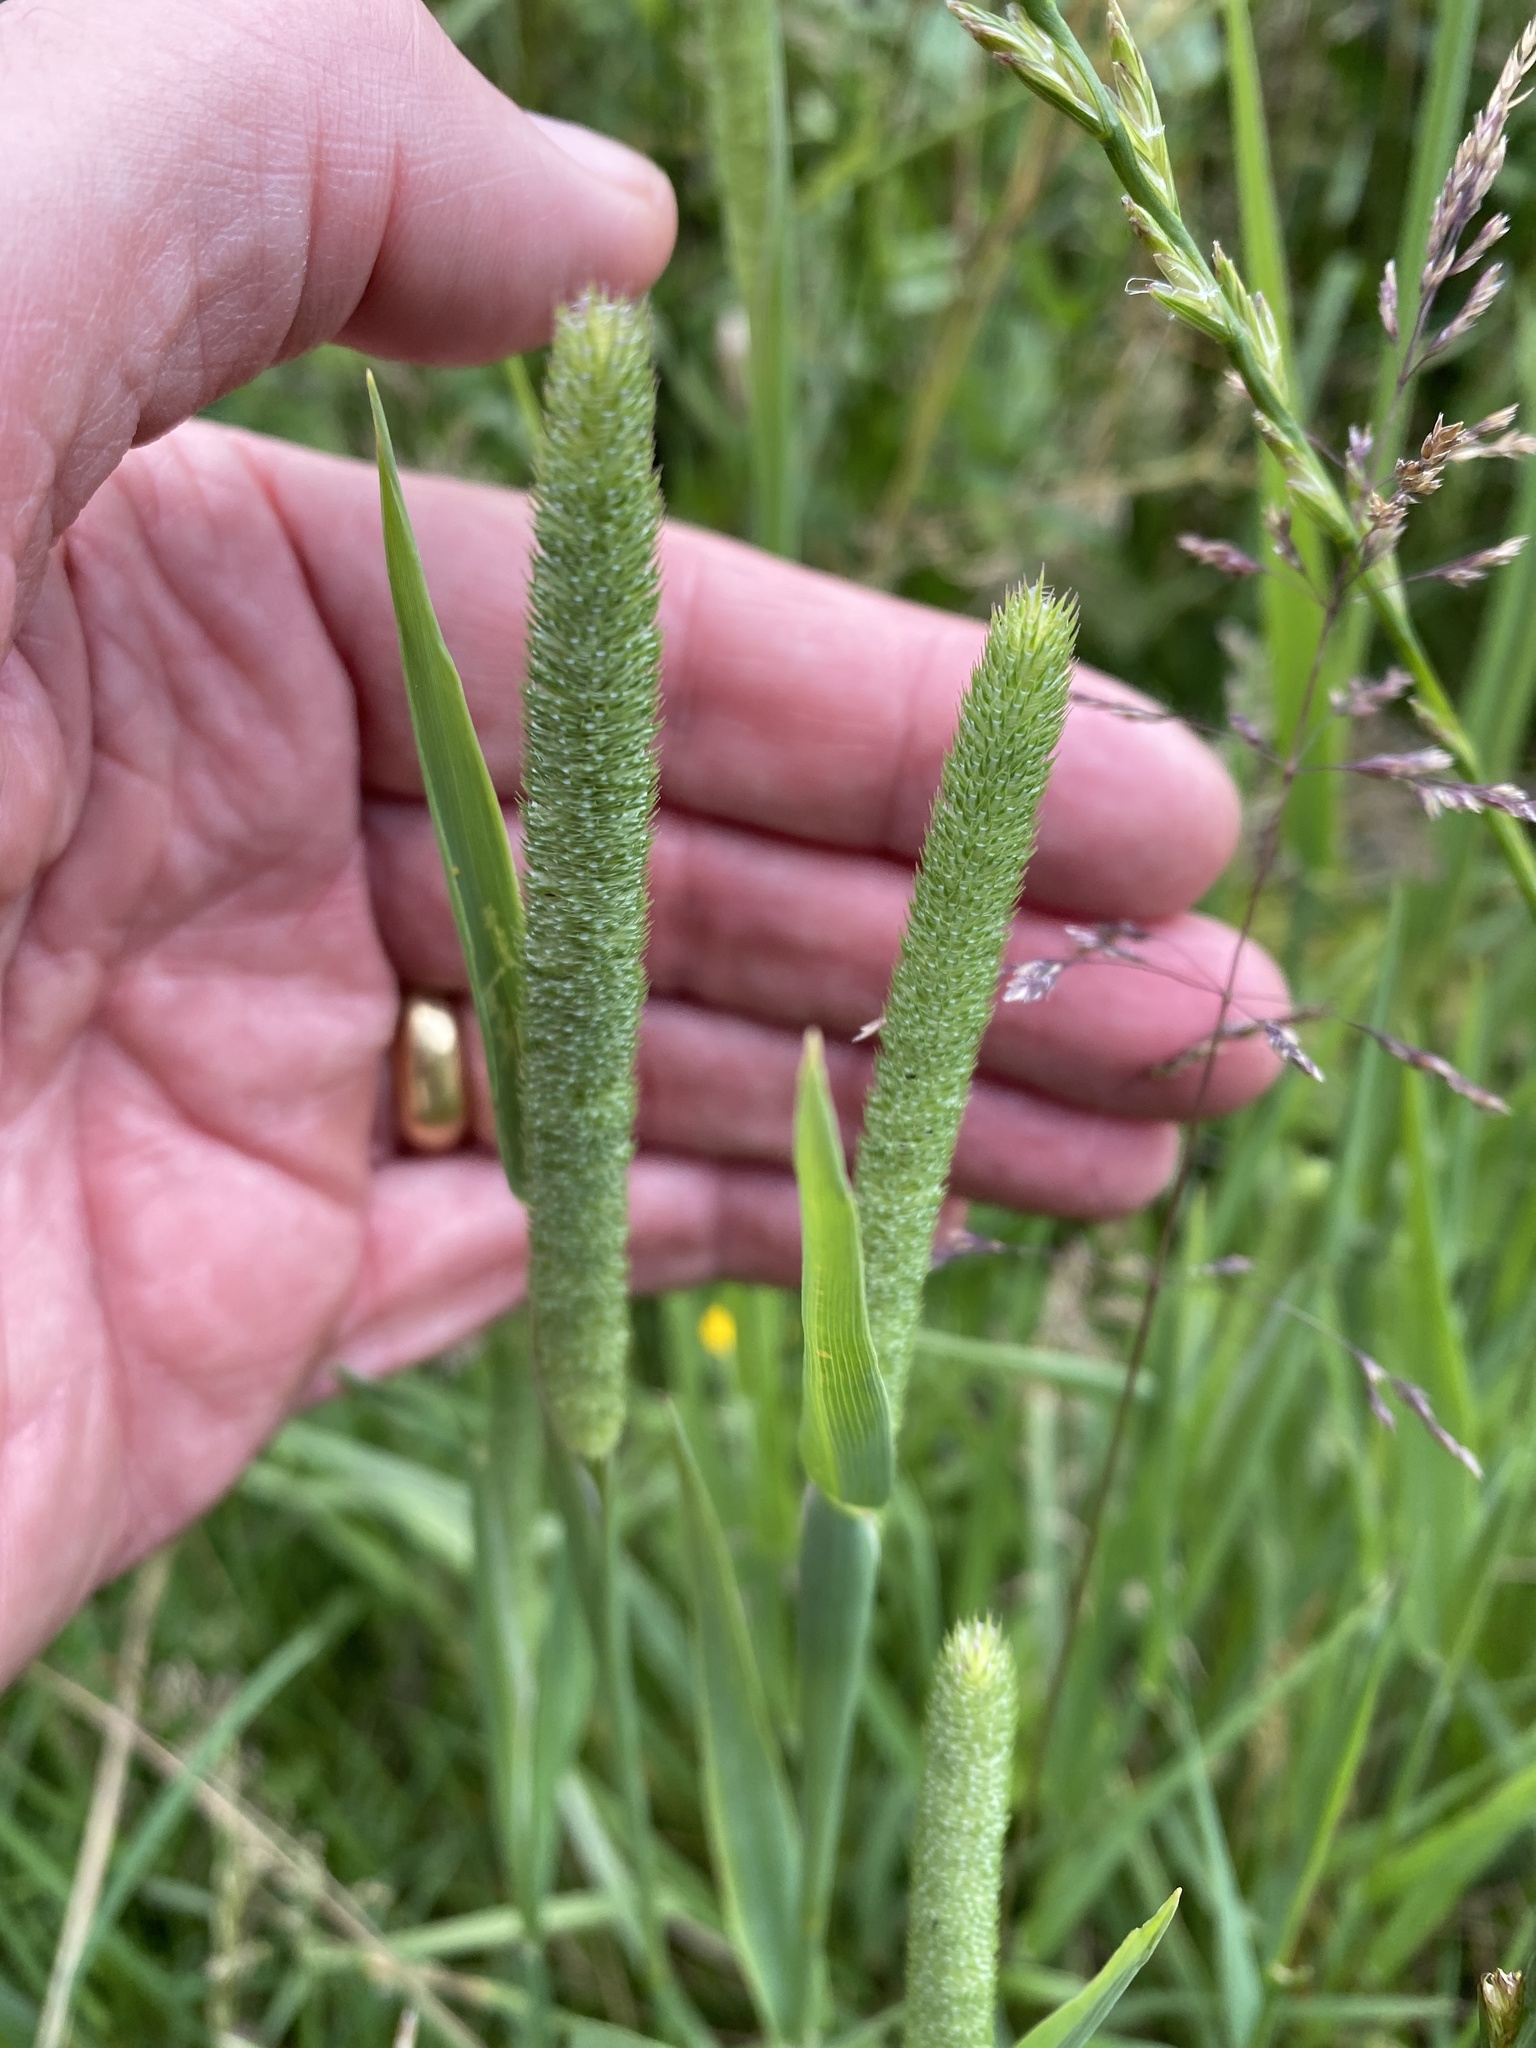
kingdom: Plantae
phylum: Tracheophyta
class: Liliopsida
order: Poales
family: Poaceae
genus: Phleum
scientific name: Phleum pratense
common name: Timothy grass
